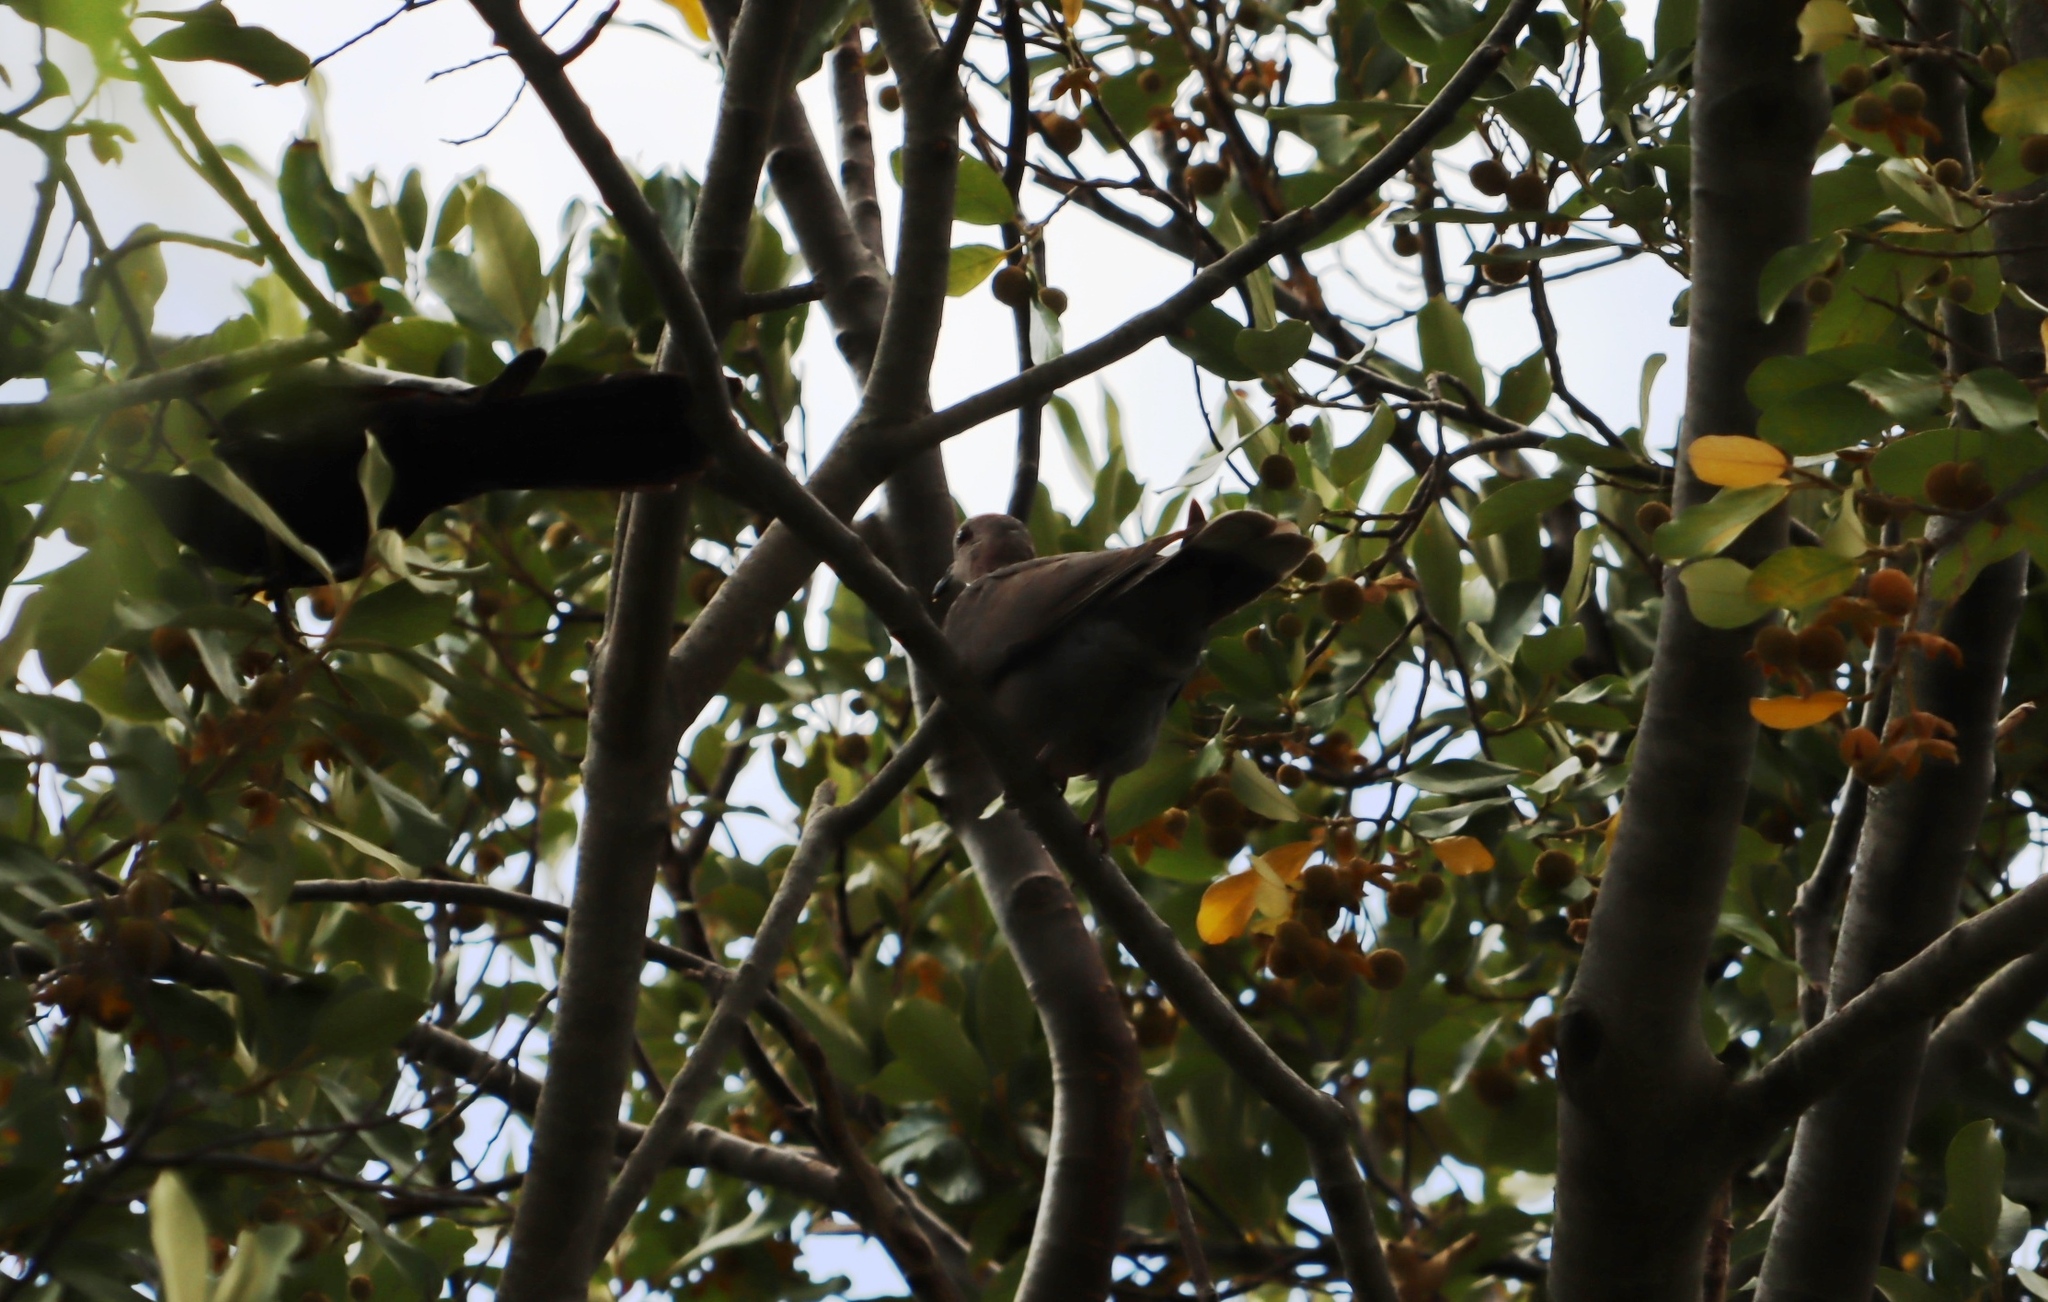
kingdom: Animalia
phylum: Chordata
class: Aves
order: Columbiformes
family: Columbidae
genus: Streptopelia
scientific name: Streptopelia semitorquata
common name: Red-eyed dove
